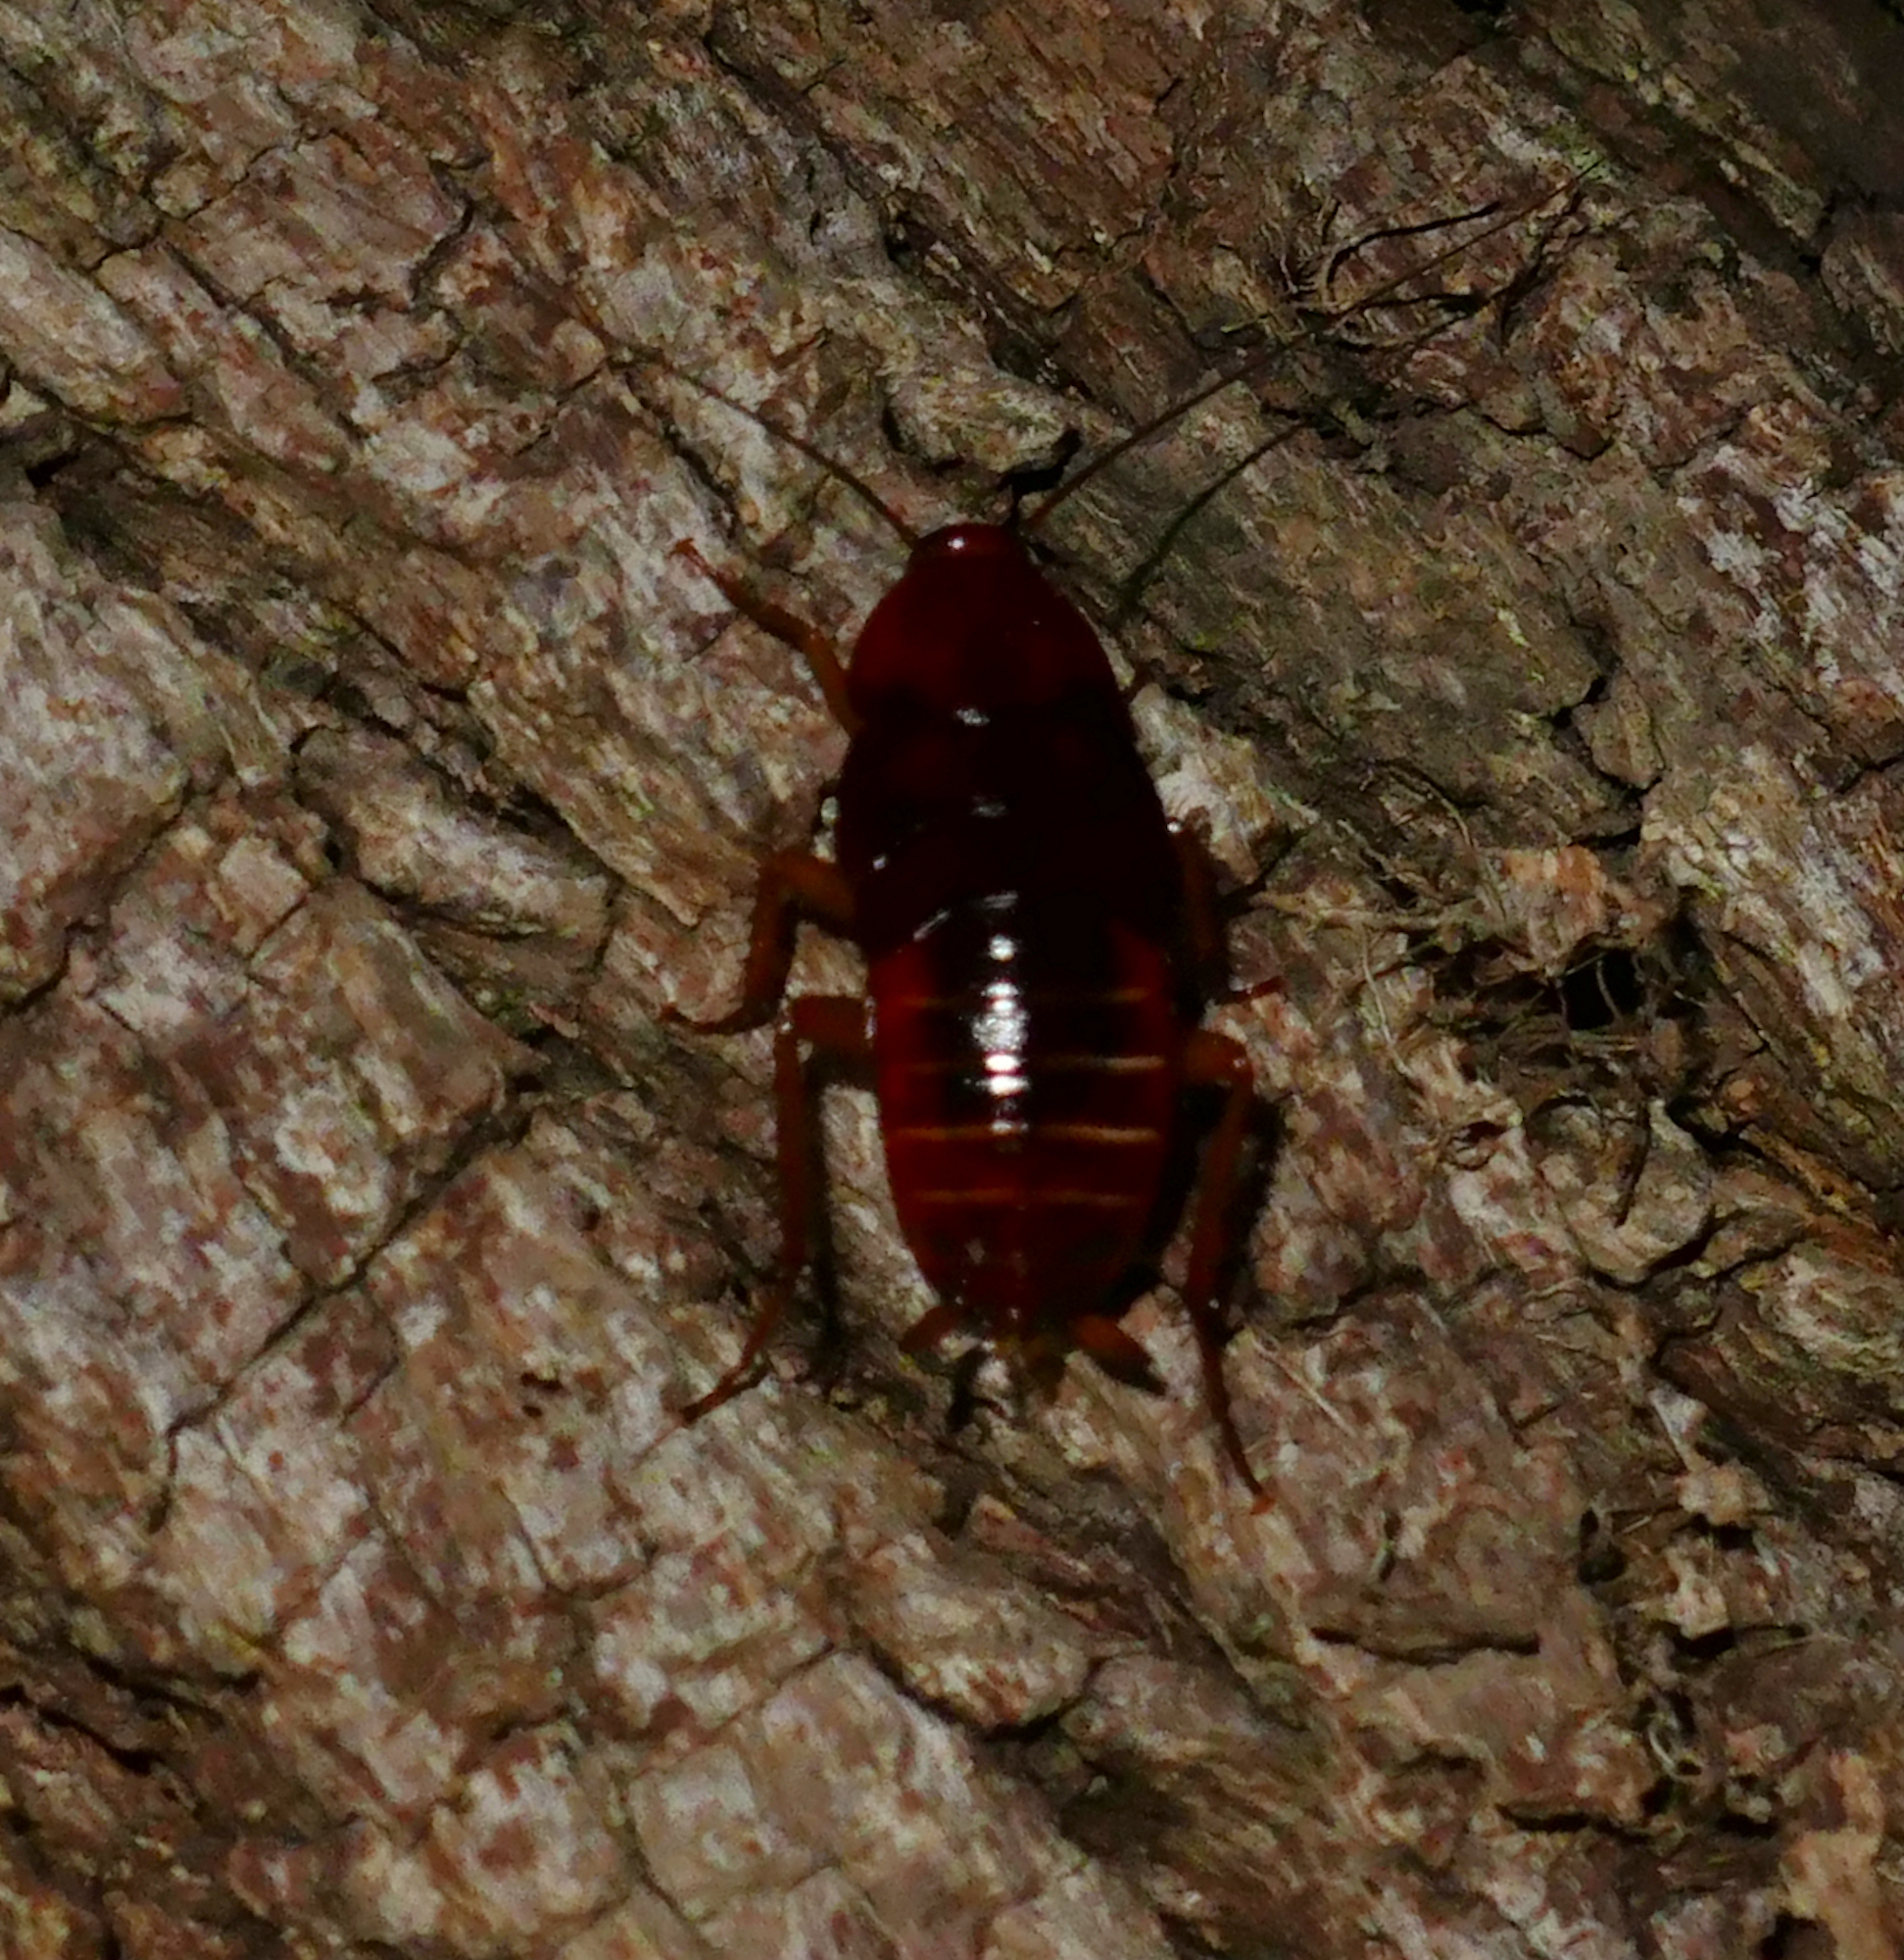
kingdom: Animalia
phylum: Arthropoda
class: Insecta
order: Blattodea
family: Blattidae
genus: Periplaneta
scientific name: Periplaneta fuliginosa
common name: Smokeybrown cockroad
